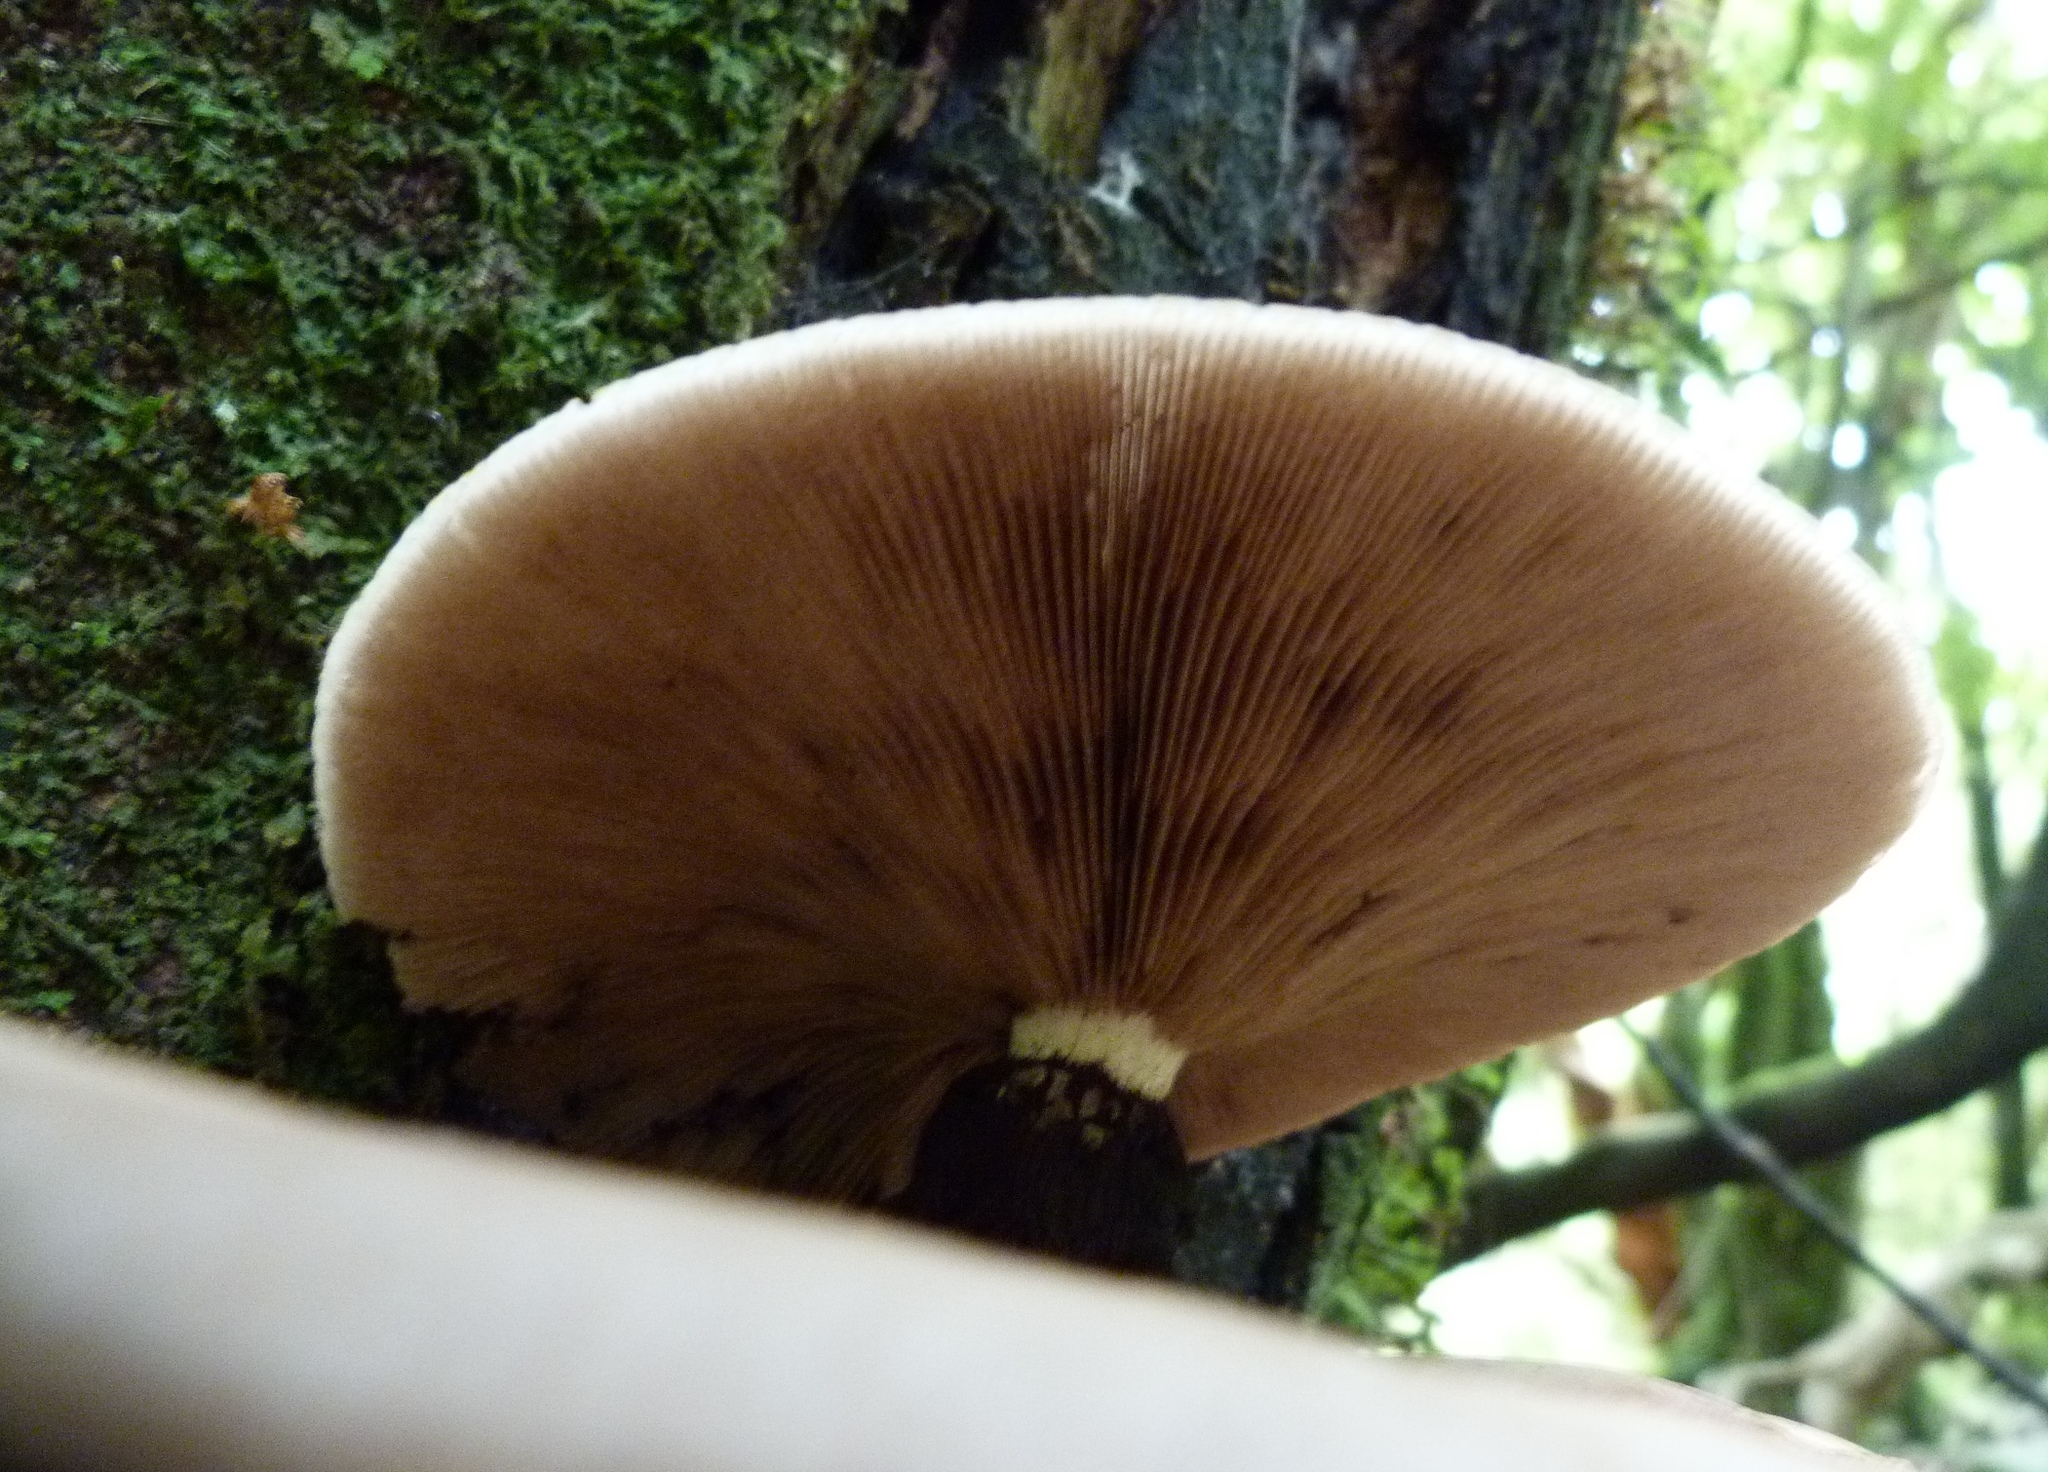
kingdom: Fungi
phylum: Basidiomycota
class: Agaricomycetes
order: Agaricales
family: Tubariaceae
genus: Cyclocybe
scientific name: Cyclocybe parasitica
